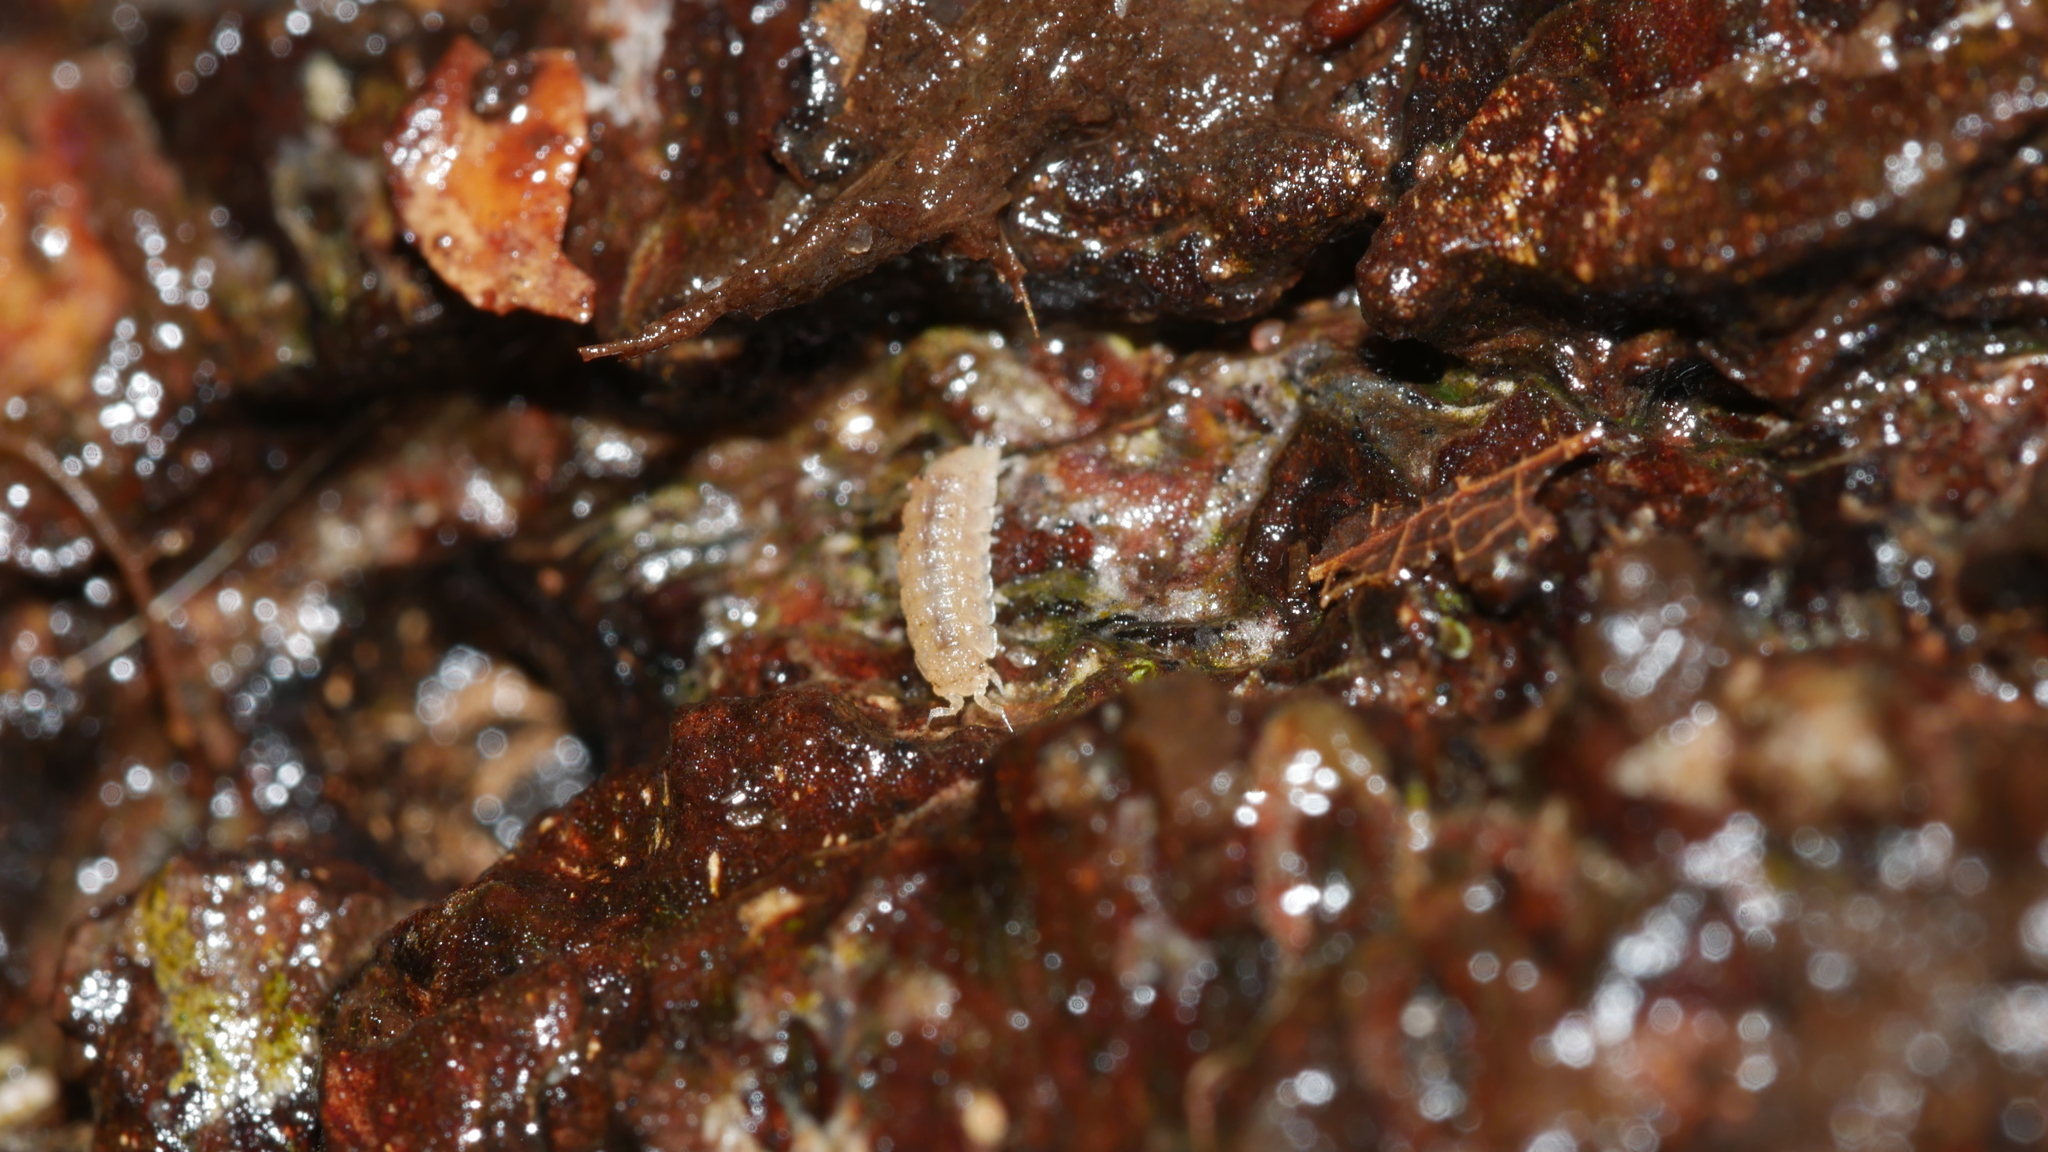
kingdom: Animalia
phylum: Arthropoda
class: Malacostraca
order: Isopoda
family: Trichoniscidae
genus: Haplophthalmus
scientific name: Haplophthalmus danicus
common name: Pillbug
